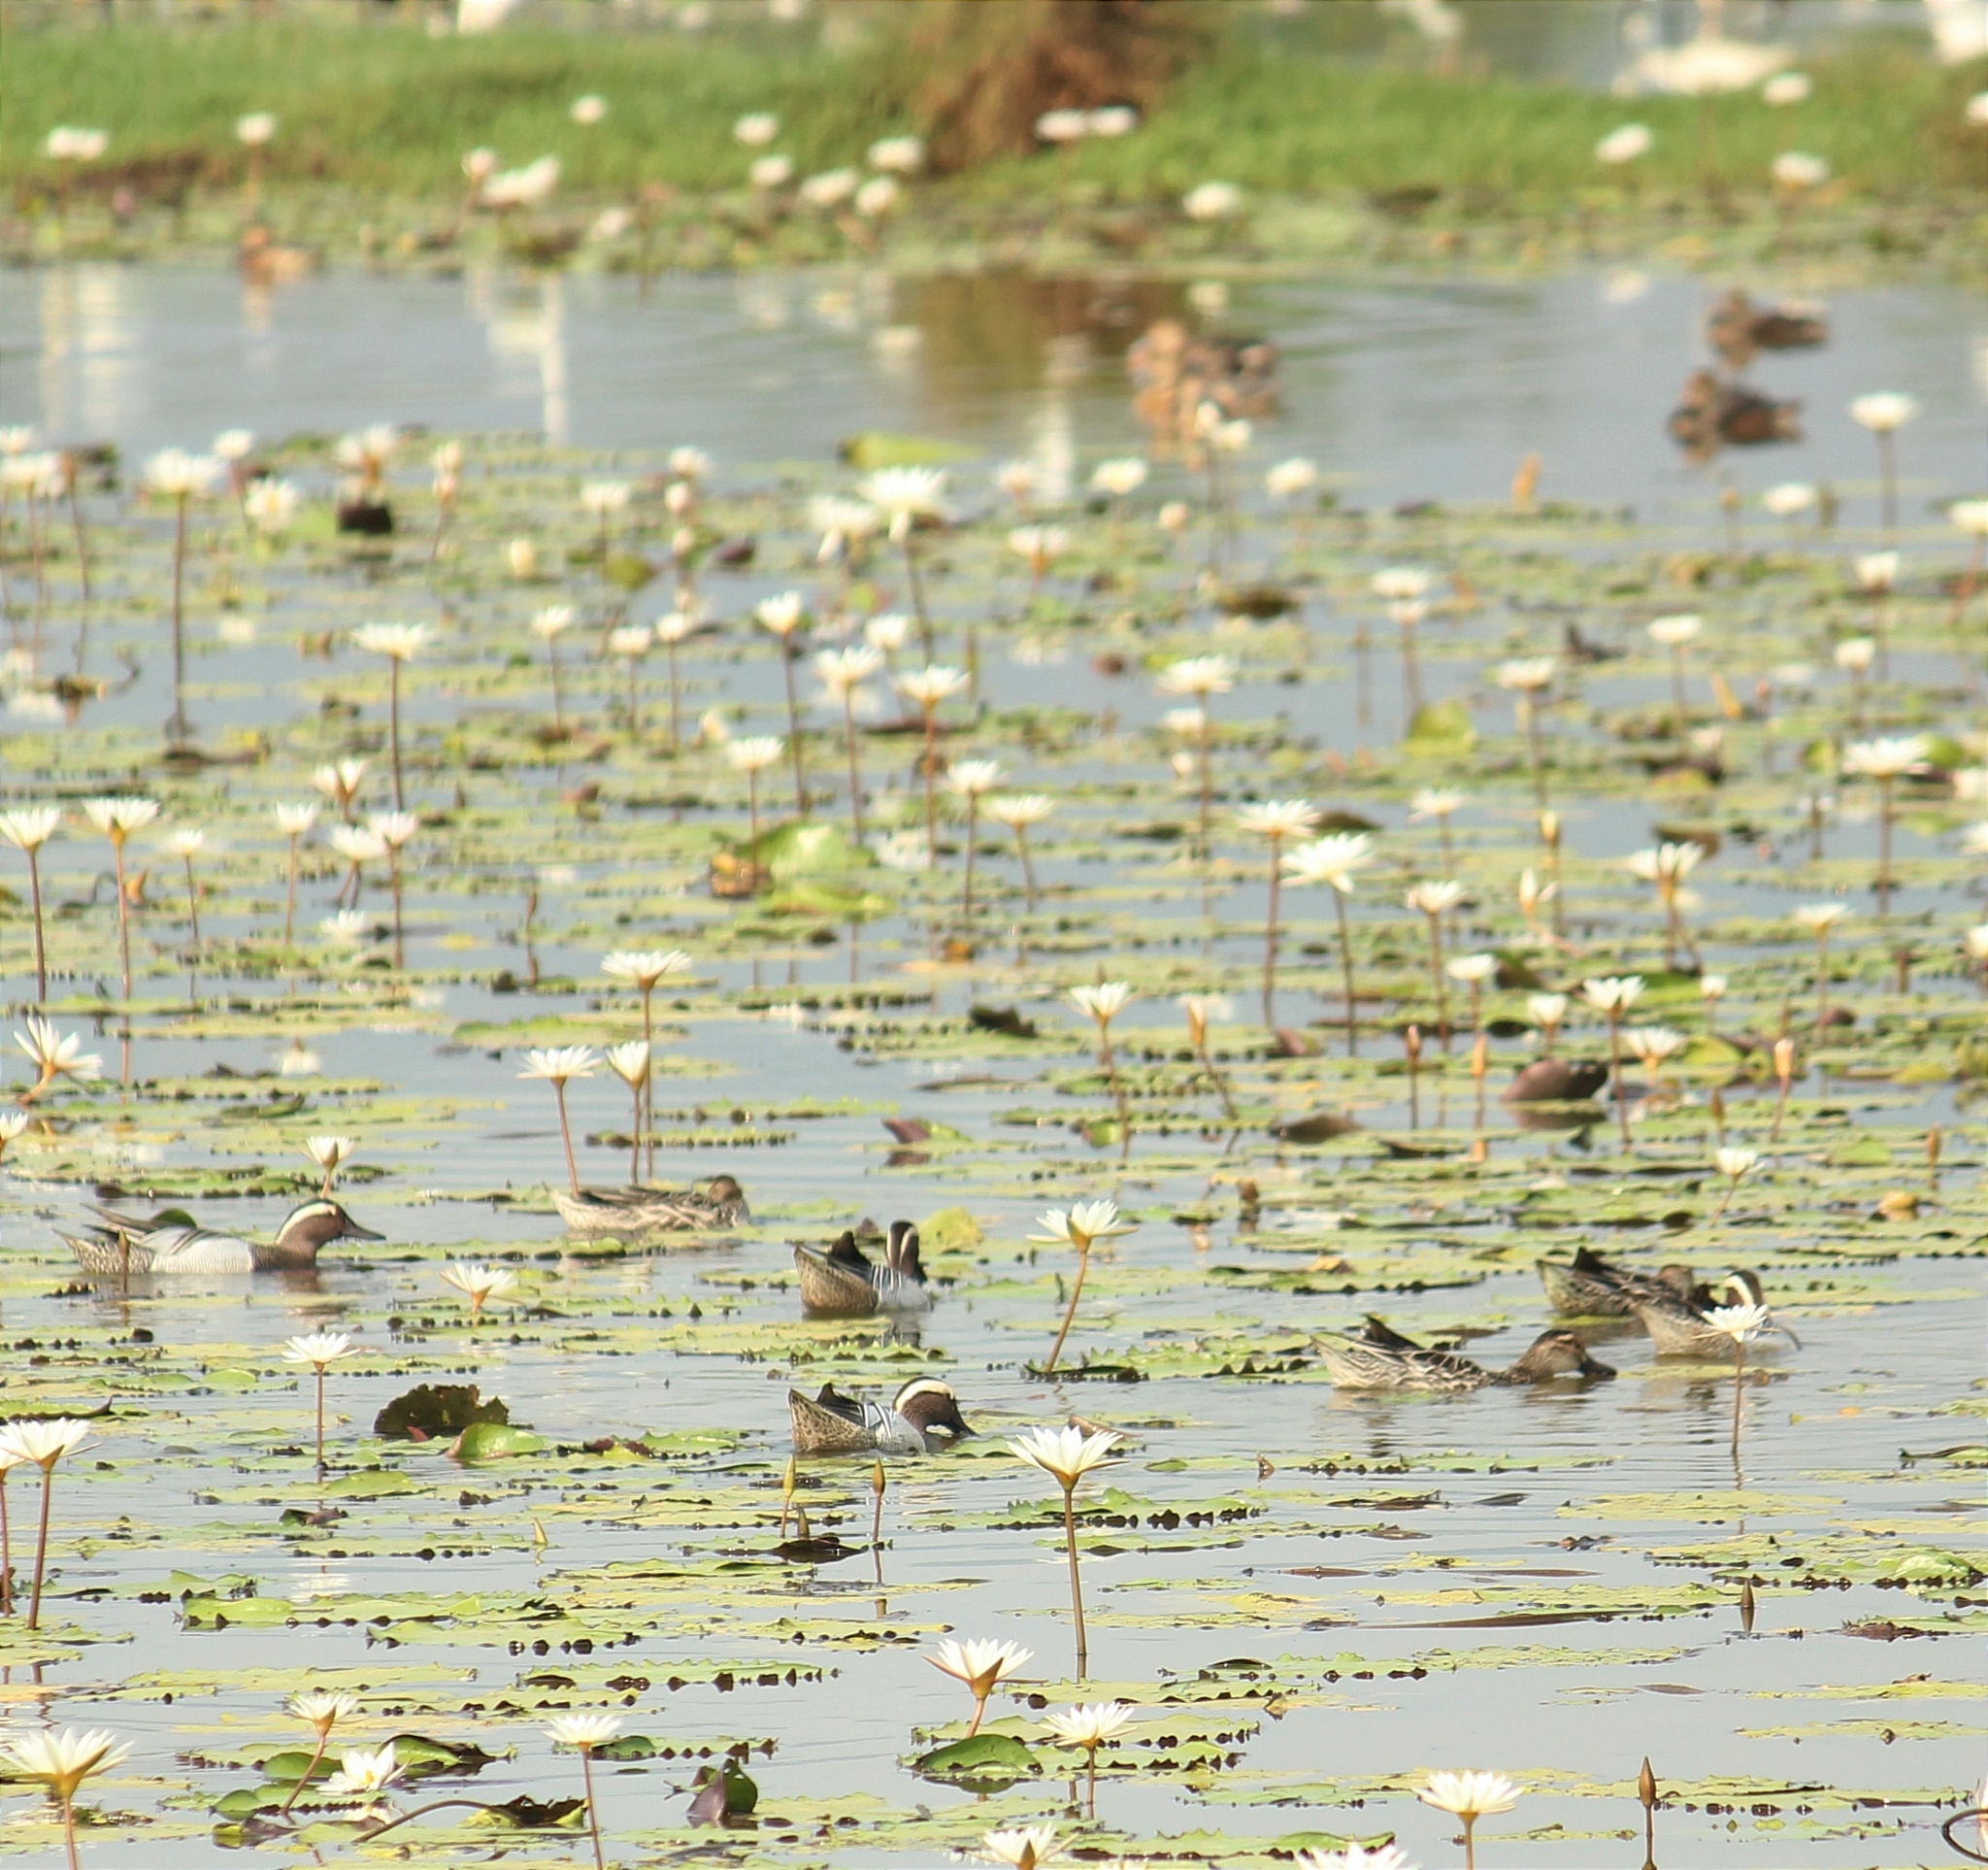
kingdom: Animalia
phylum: Chordata
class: Aves
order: Anseriformes
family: Anatidae
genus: Spatula
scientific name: Spatula querquedula
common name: Garganey
